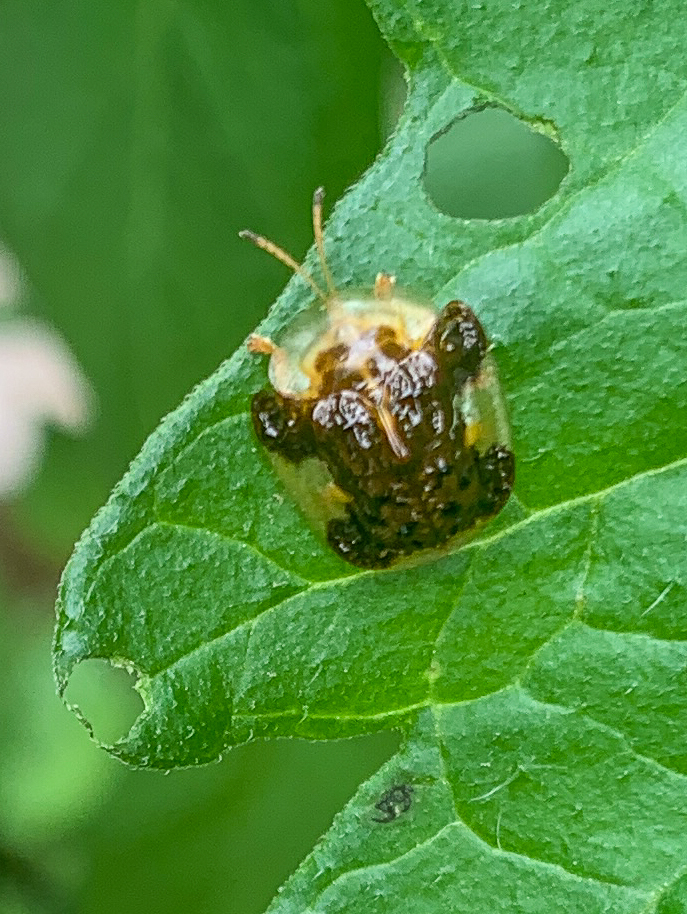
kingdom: Animalia
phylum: Arthropoda
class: Insecta
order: Coleoptera
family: Chrysomelidae
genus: Helocassis
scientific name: Helocassis clavata
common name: Clavate tortoise beetle
